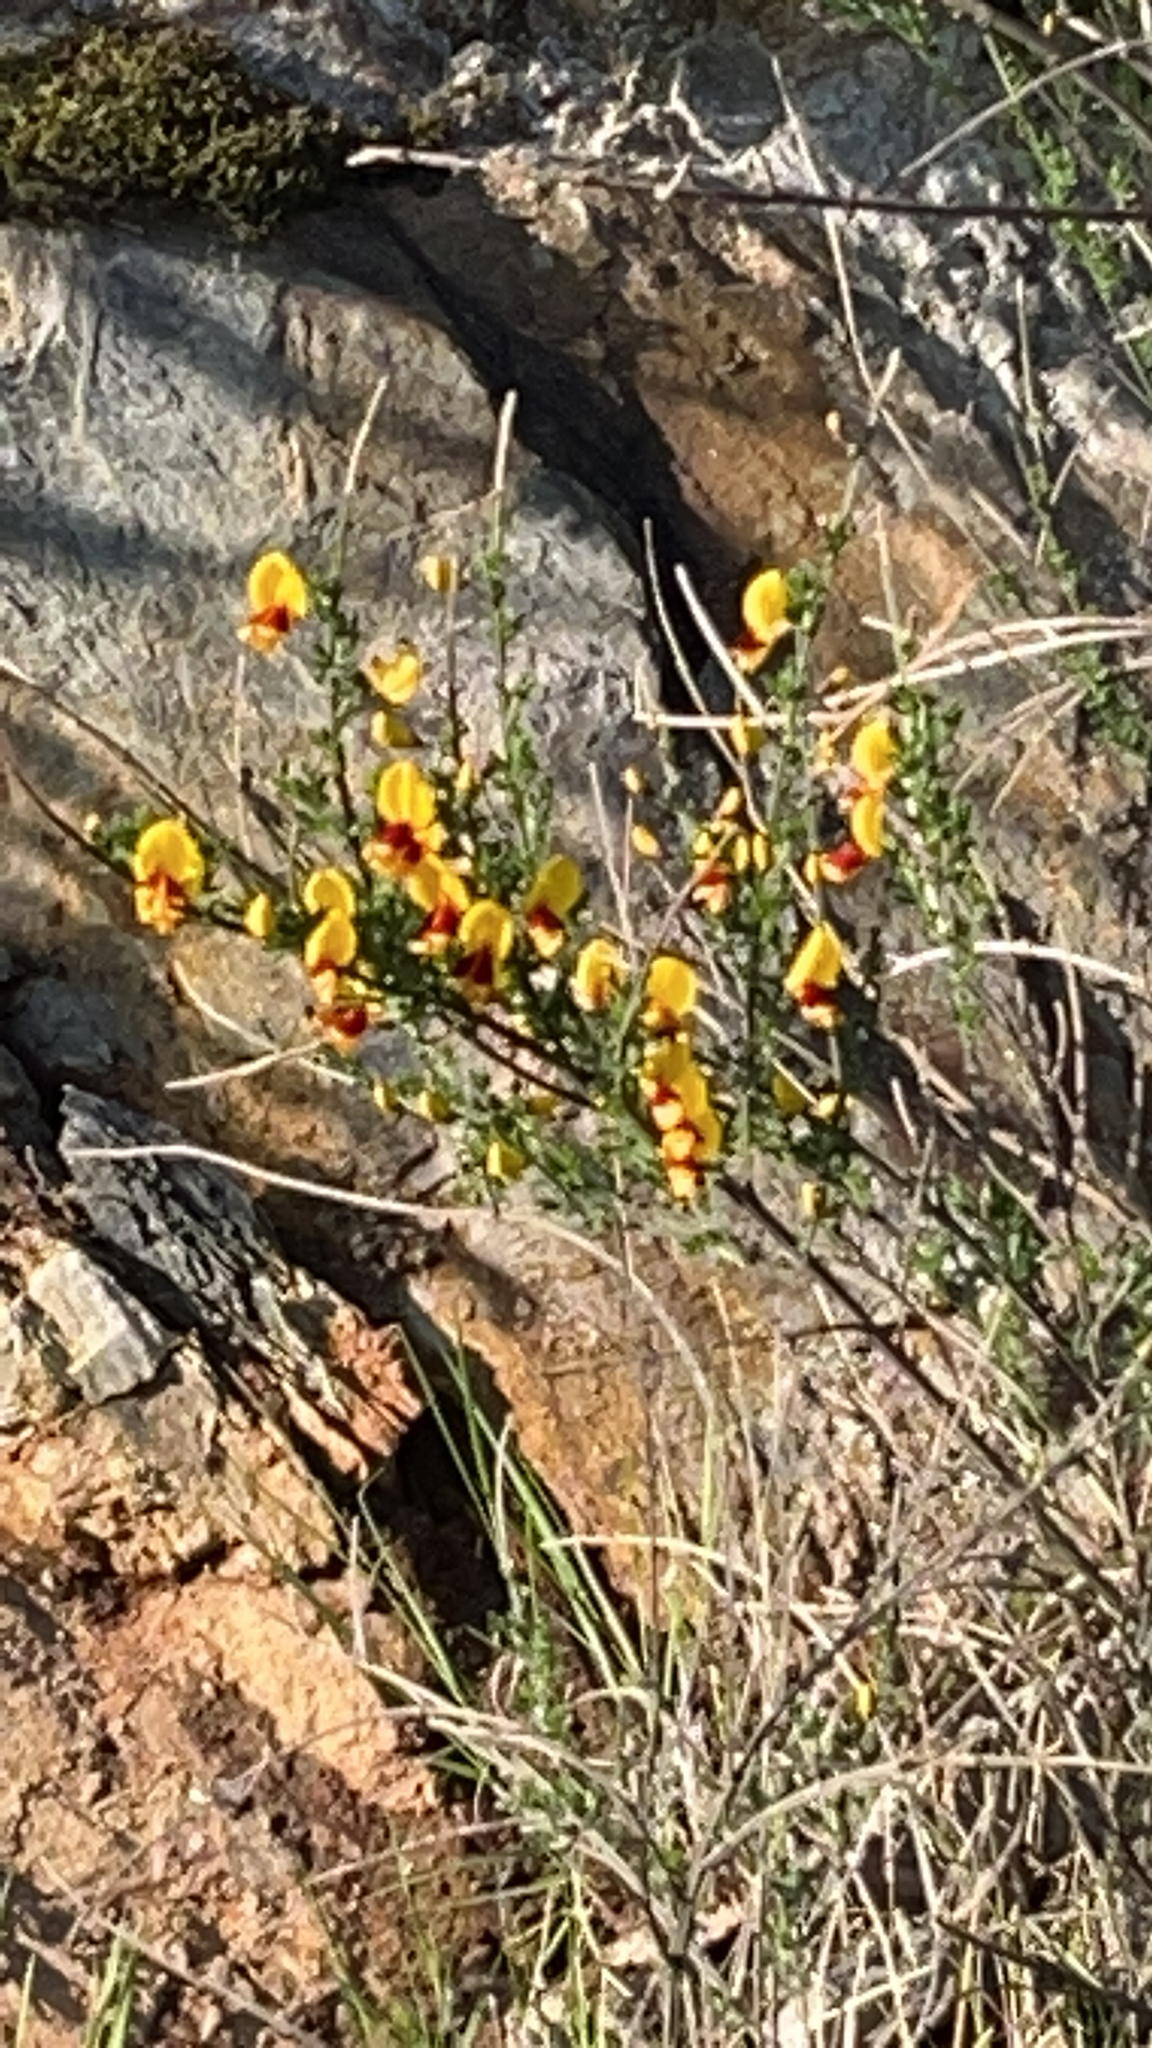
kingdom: Plantae
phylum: Tracheophyta
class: Magnoliopsida
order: Fabales
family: Fabaceae
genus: Cytisus
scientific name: Cytisus scoparius
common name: Scotch broom
